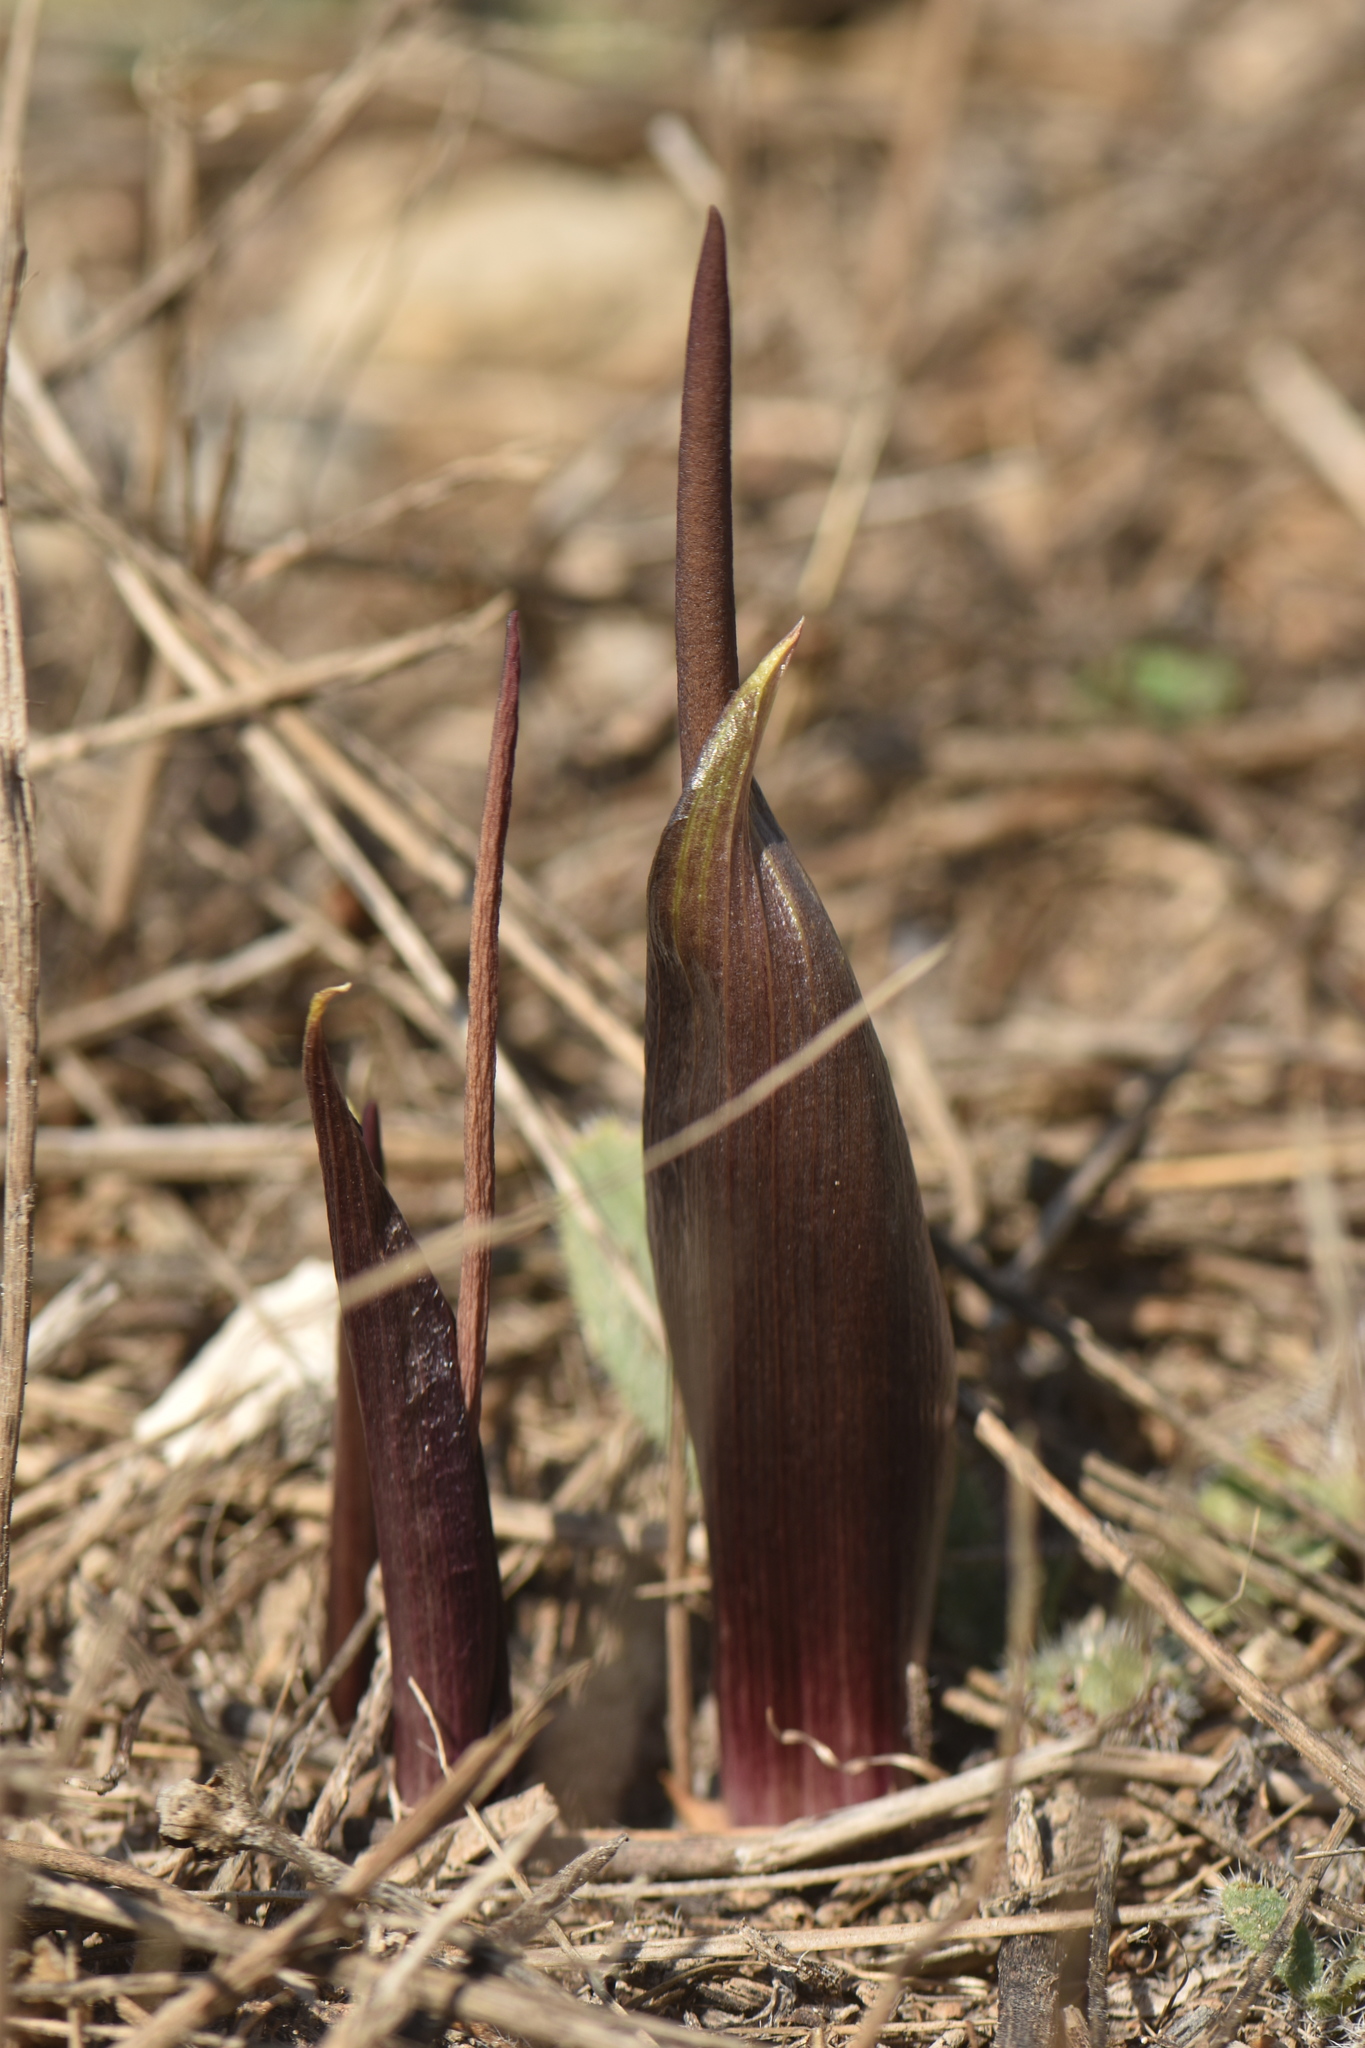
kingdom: Plantae
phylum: Tracheophyta
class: Liliopsida
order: Alismatales
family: Araceae
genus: Biarum
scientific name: Biarum tenuifolium
